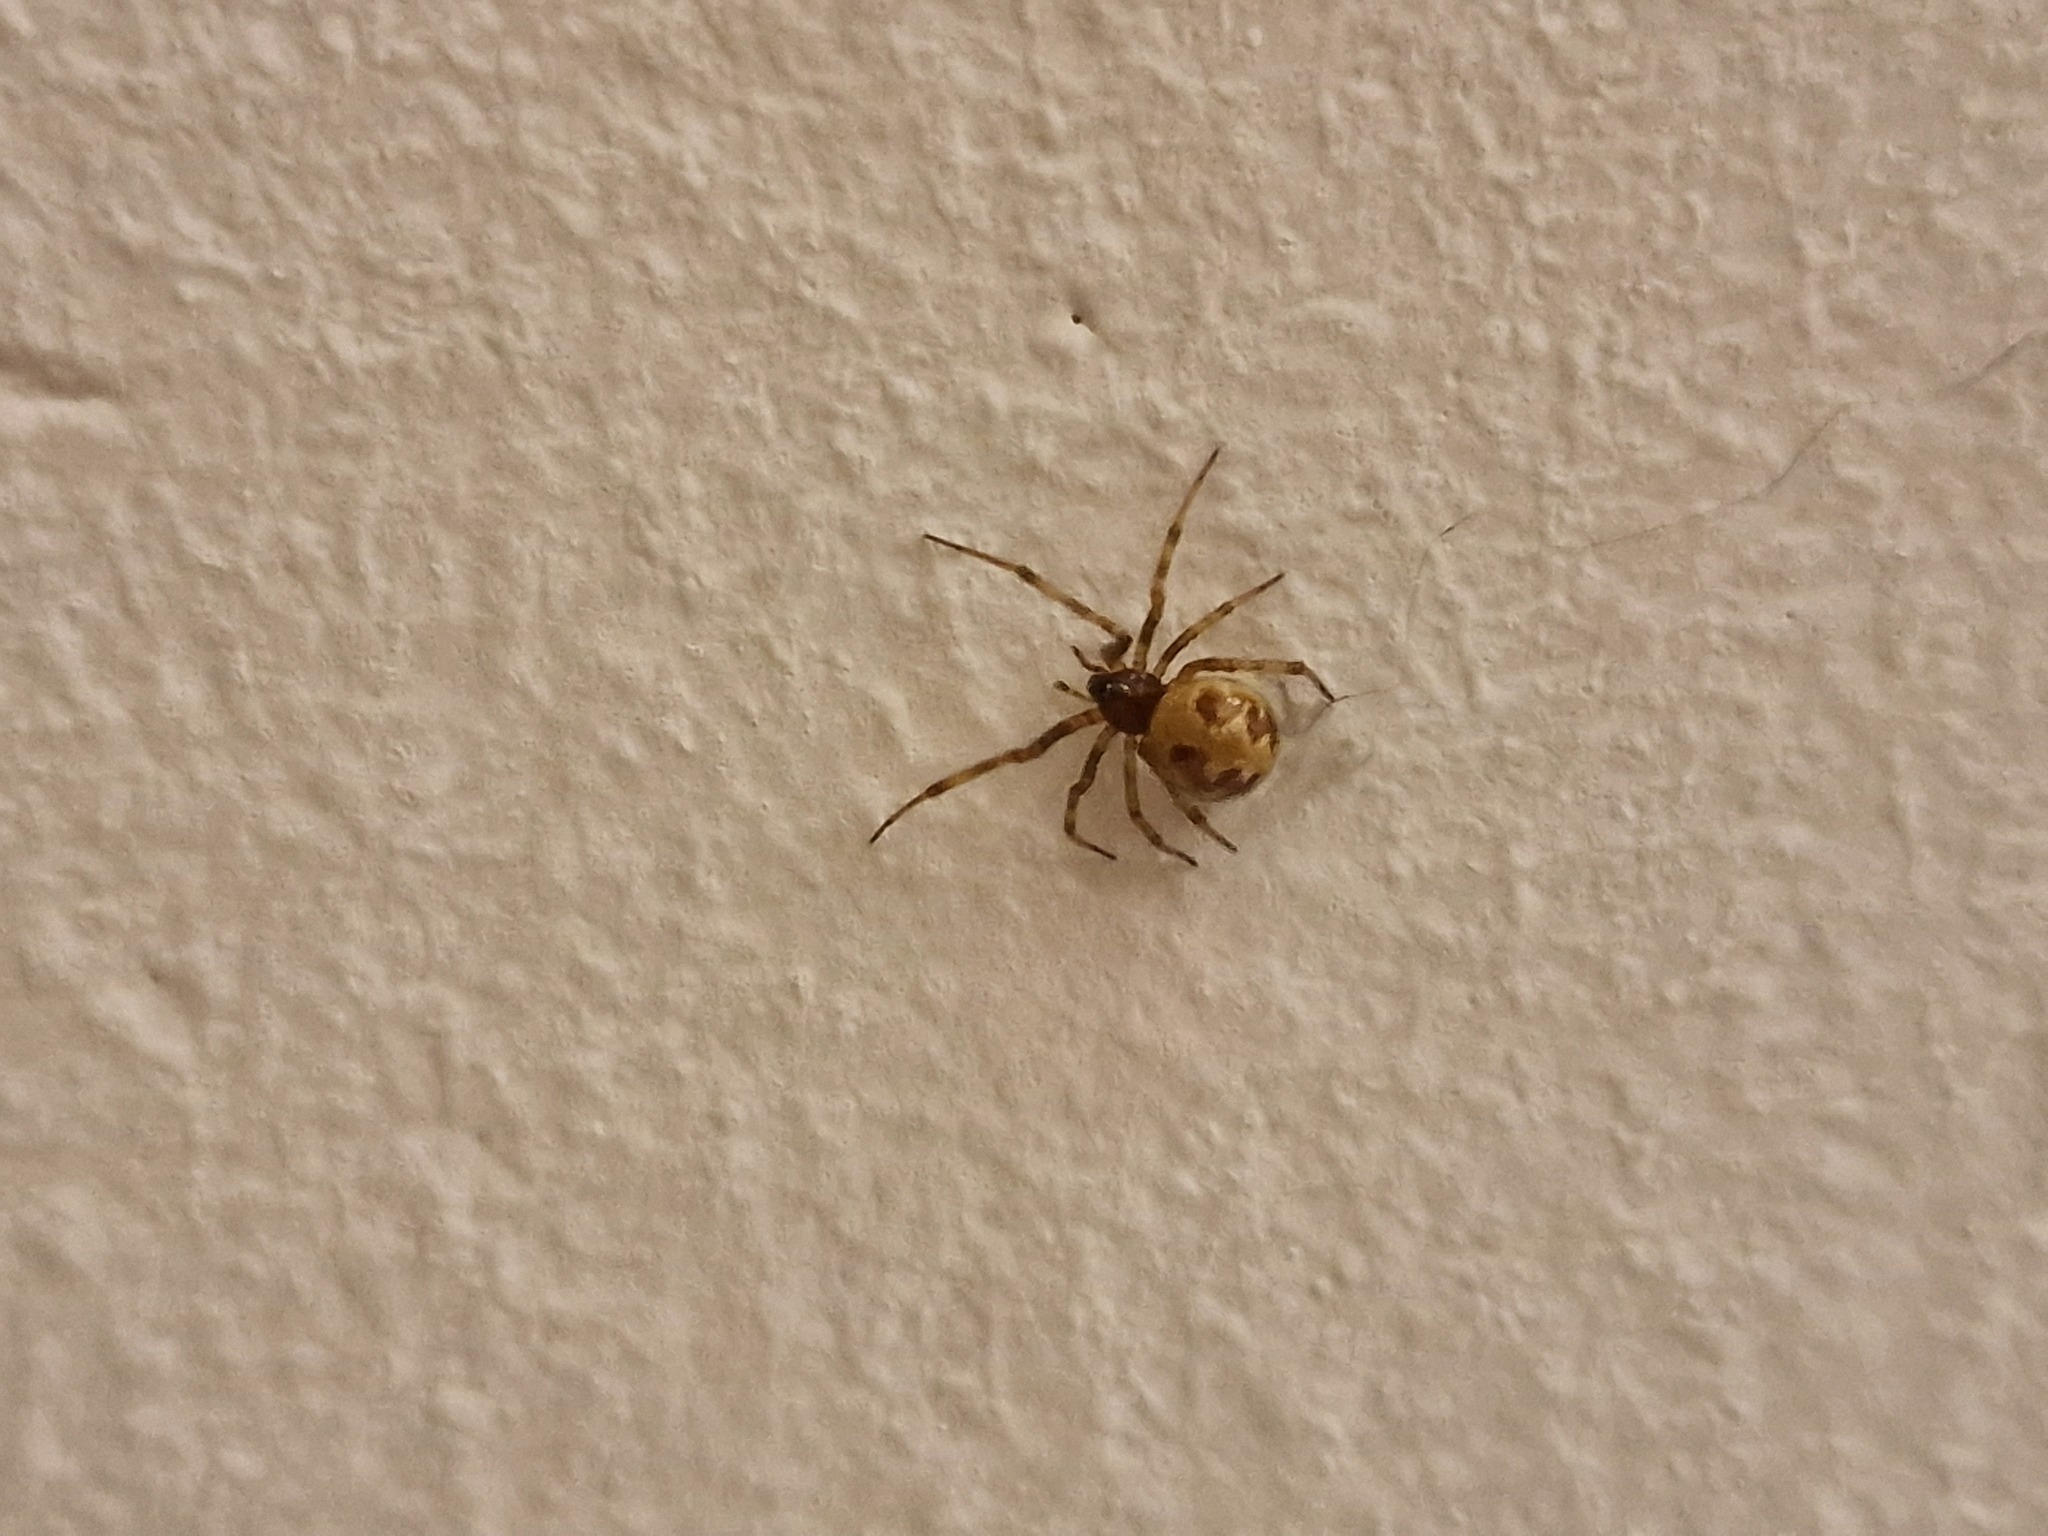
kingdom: Animalia
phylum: Arthropoda
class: Arachnida
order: Araneae
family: Theridiidae
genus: Steatoda
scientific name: Steatoda triangulosa
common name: Triangulate bud spider
